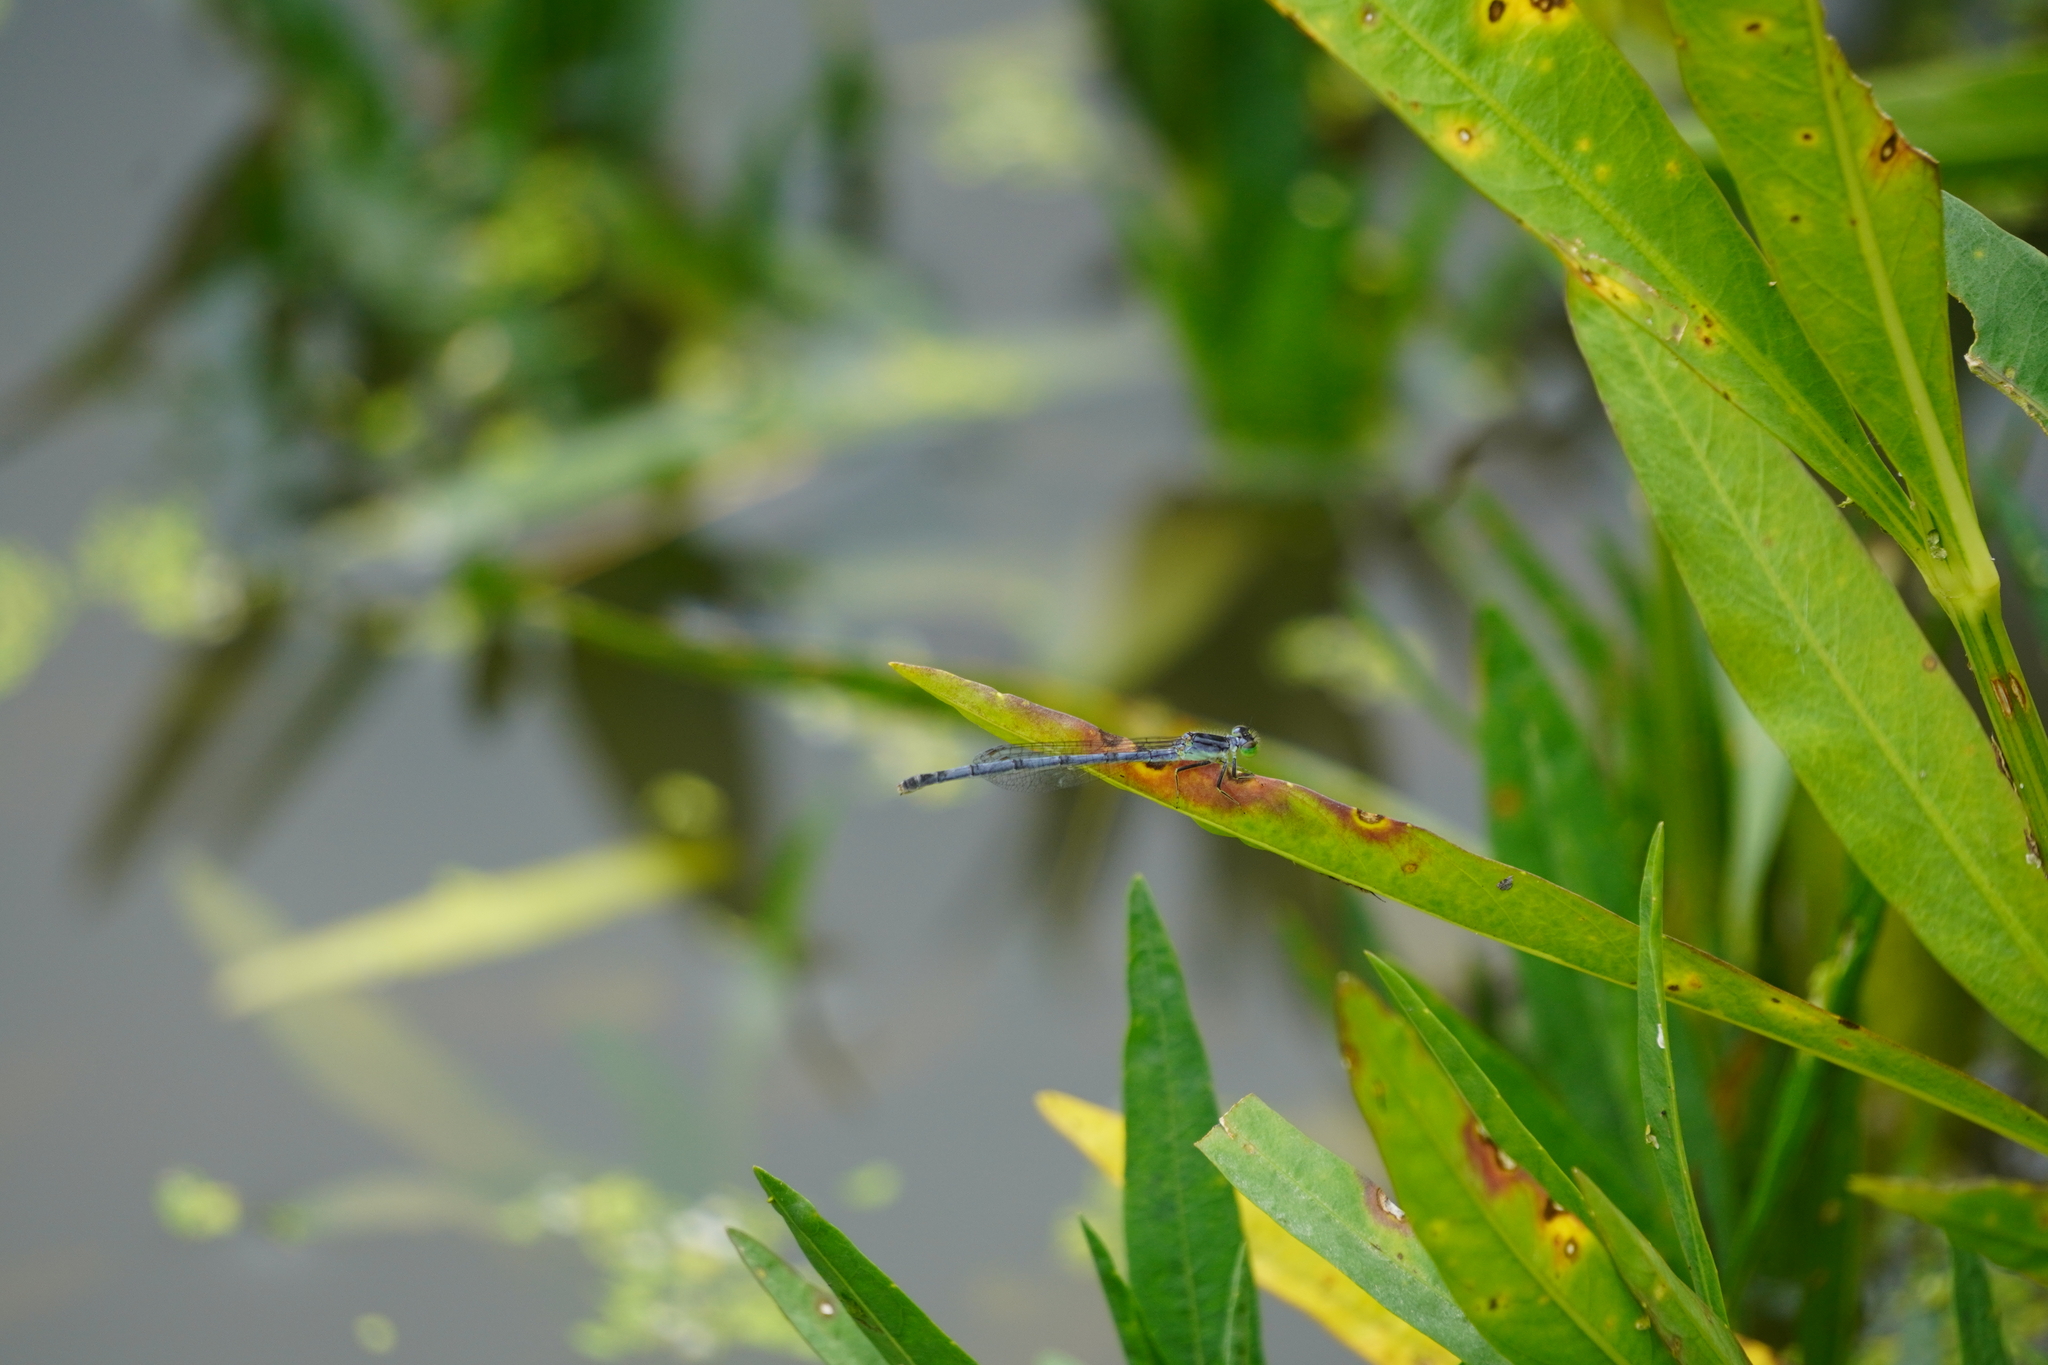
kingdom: Animalia
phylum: Arthropoda
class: Insecta
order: Odonata
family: Coenagrionidae
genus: Ischnura
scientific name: Ischnura verticalis
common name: Eastern forktail
